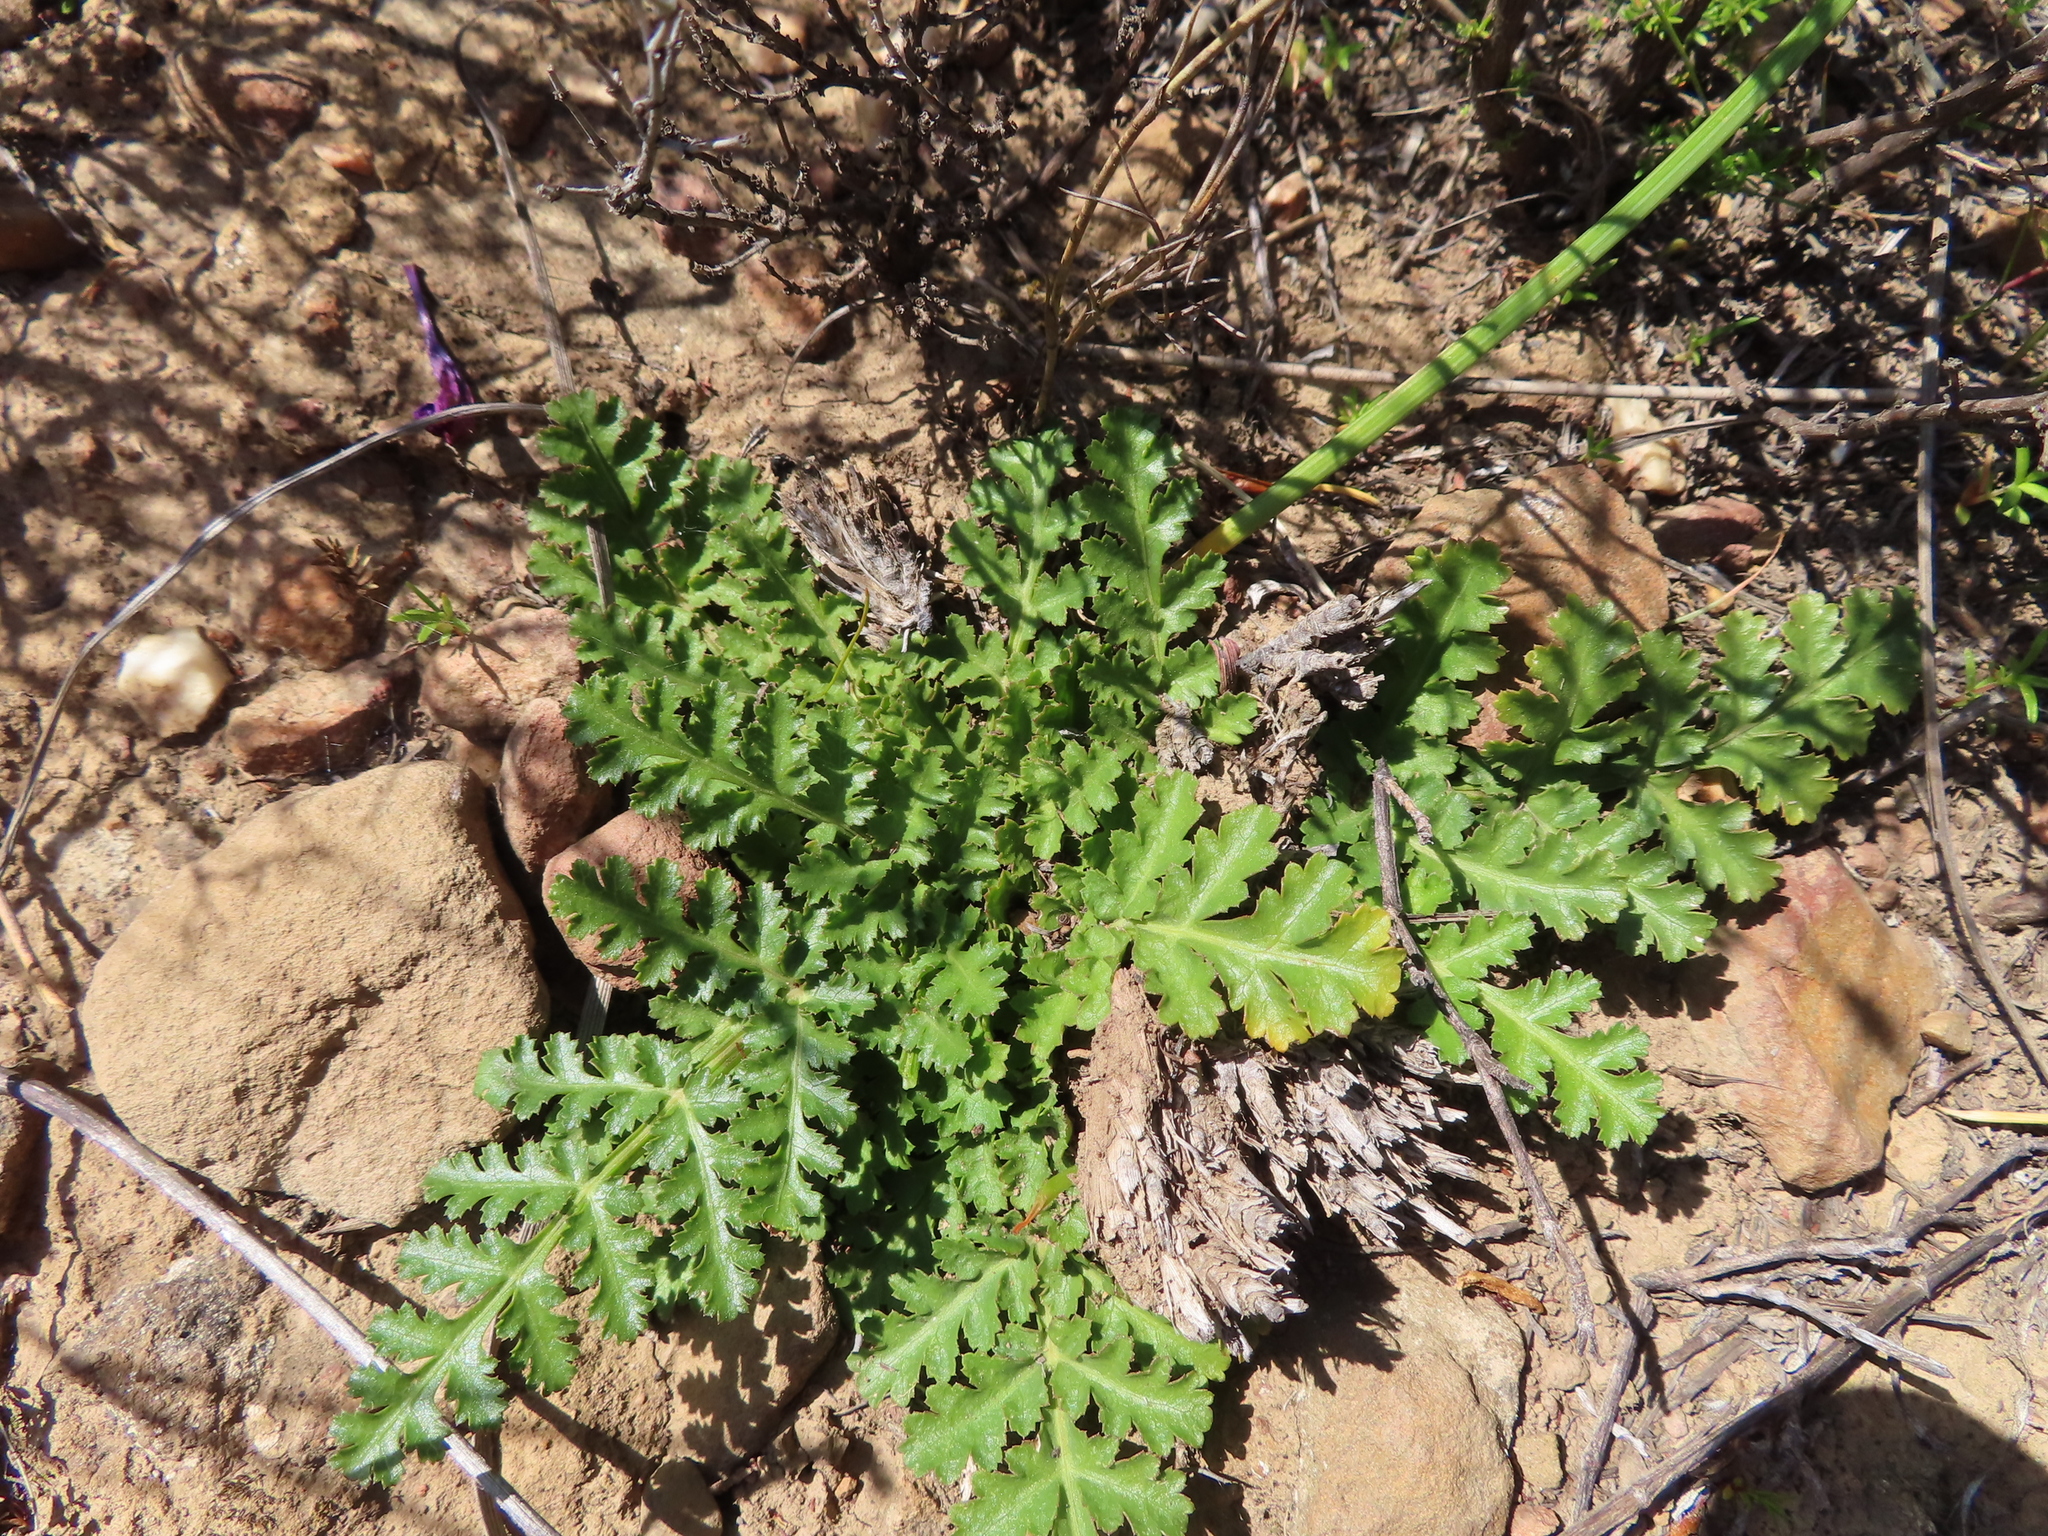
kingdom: Plantae
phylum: Tracheophyta
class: Magnoliopsida
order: Apiales
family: Apiaceae
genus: Annesorhiza
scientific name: Annesorhiza nuda
